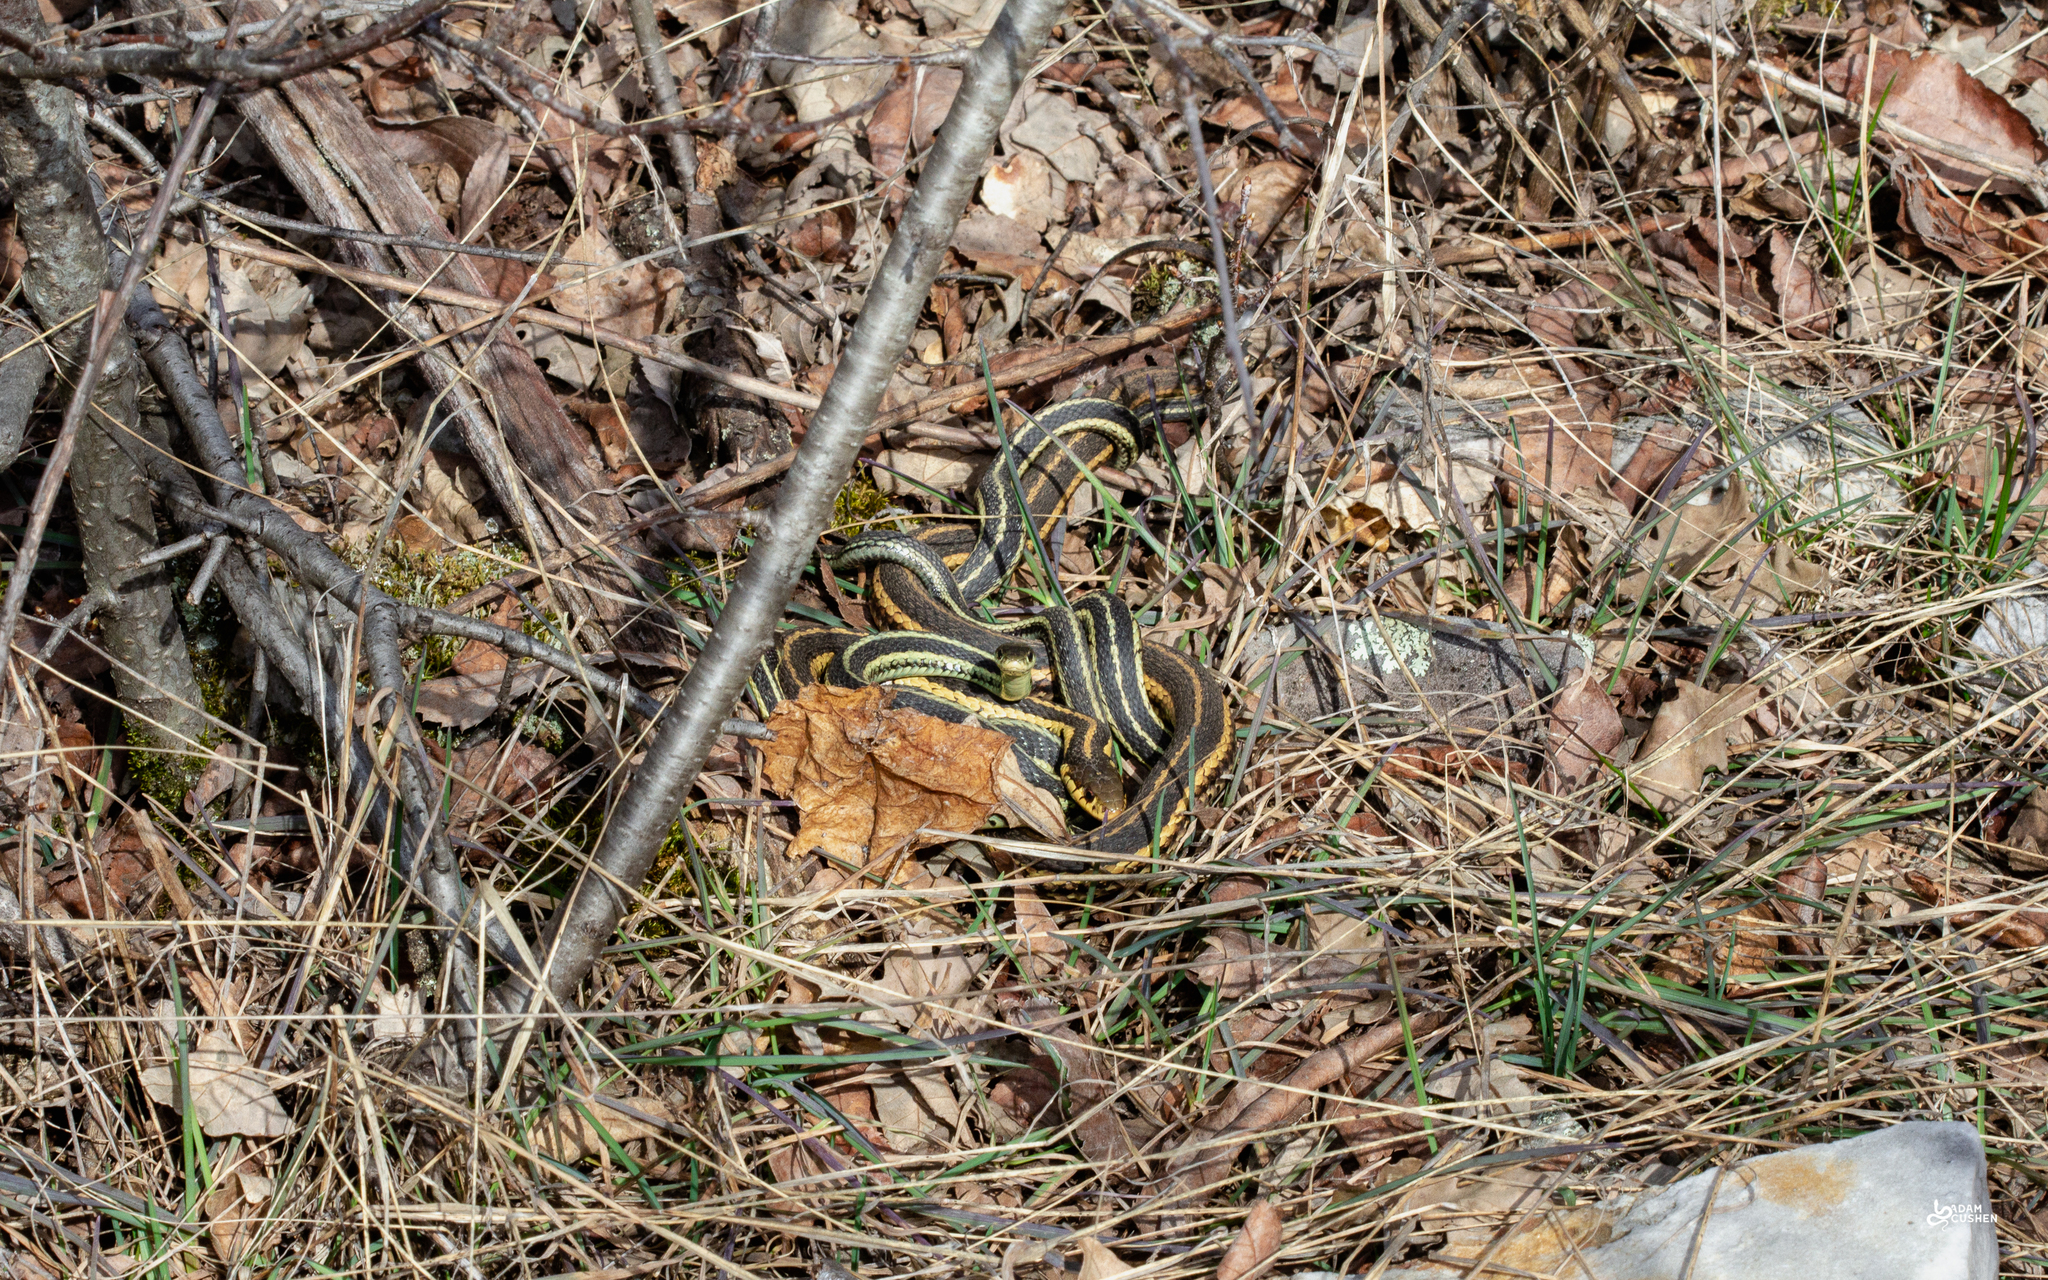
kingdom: Animalia
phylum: Chordata
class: Squamata
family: Colubridae
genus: Thamnophis
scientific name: Thamnophis sirtalis
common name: Common garter snake
